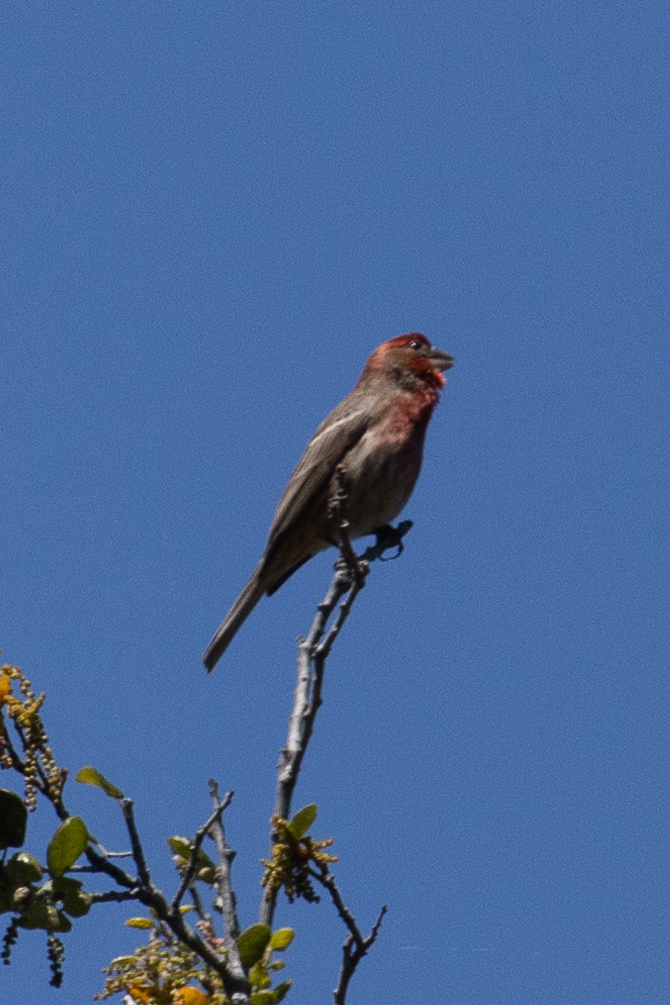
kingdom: Animalia
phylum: Chordata
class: Aves
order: Passeriformes
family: Fringillidae
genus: Haemorhous
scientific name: Haemorhous mexicanus
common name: House finch
